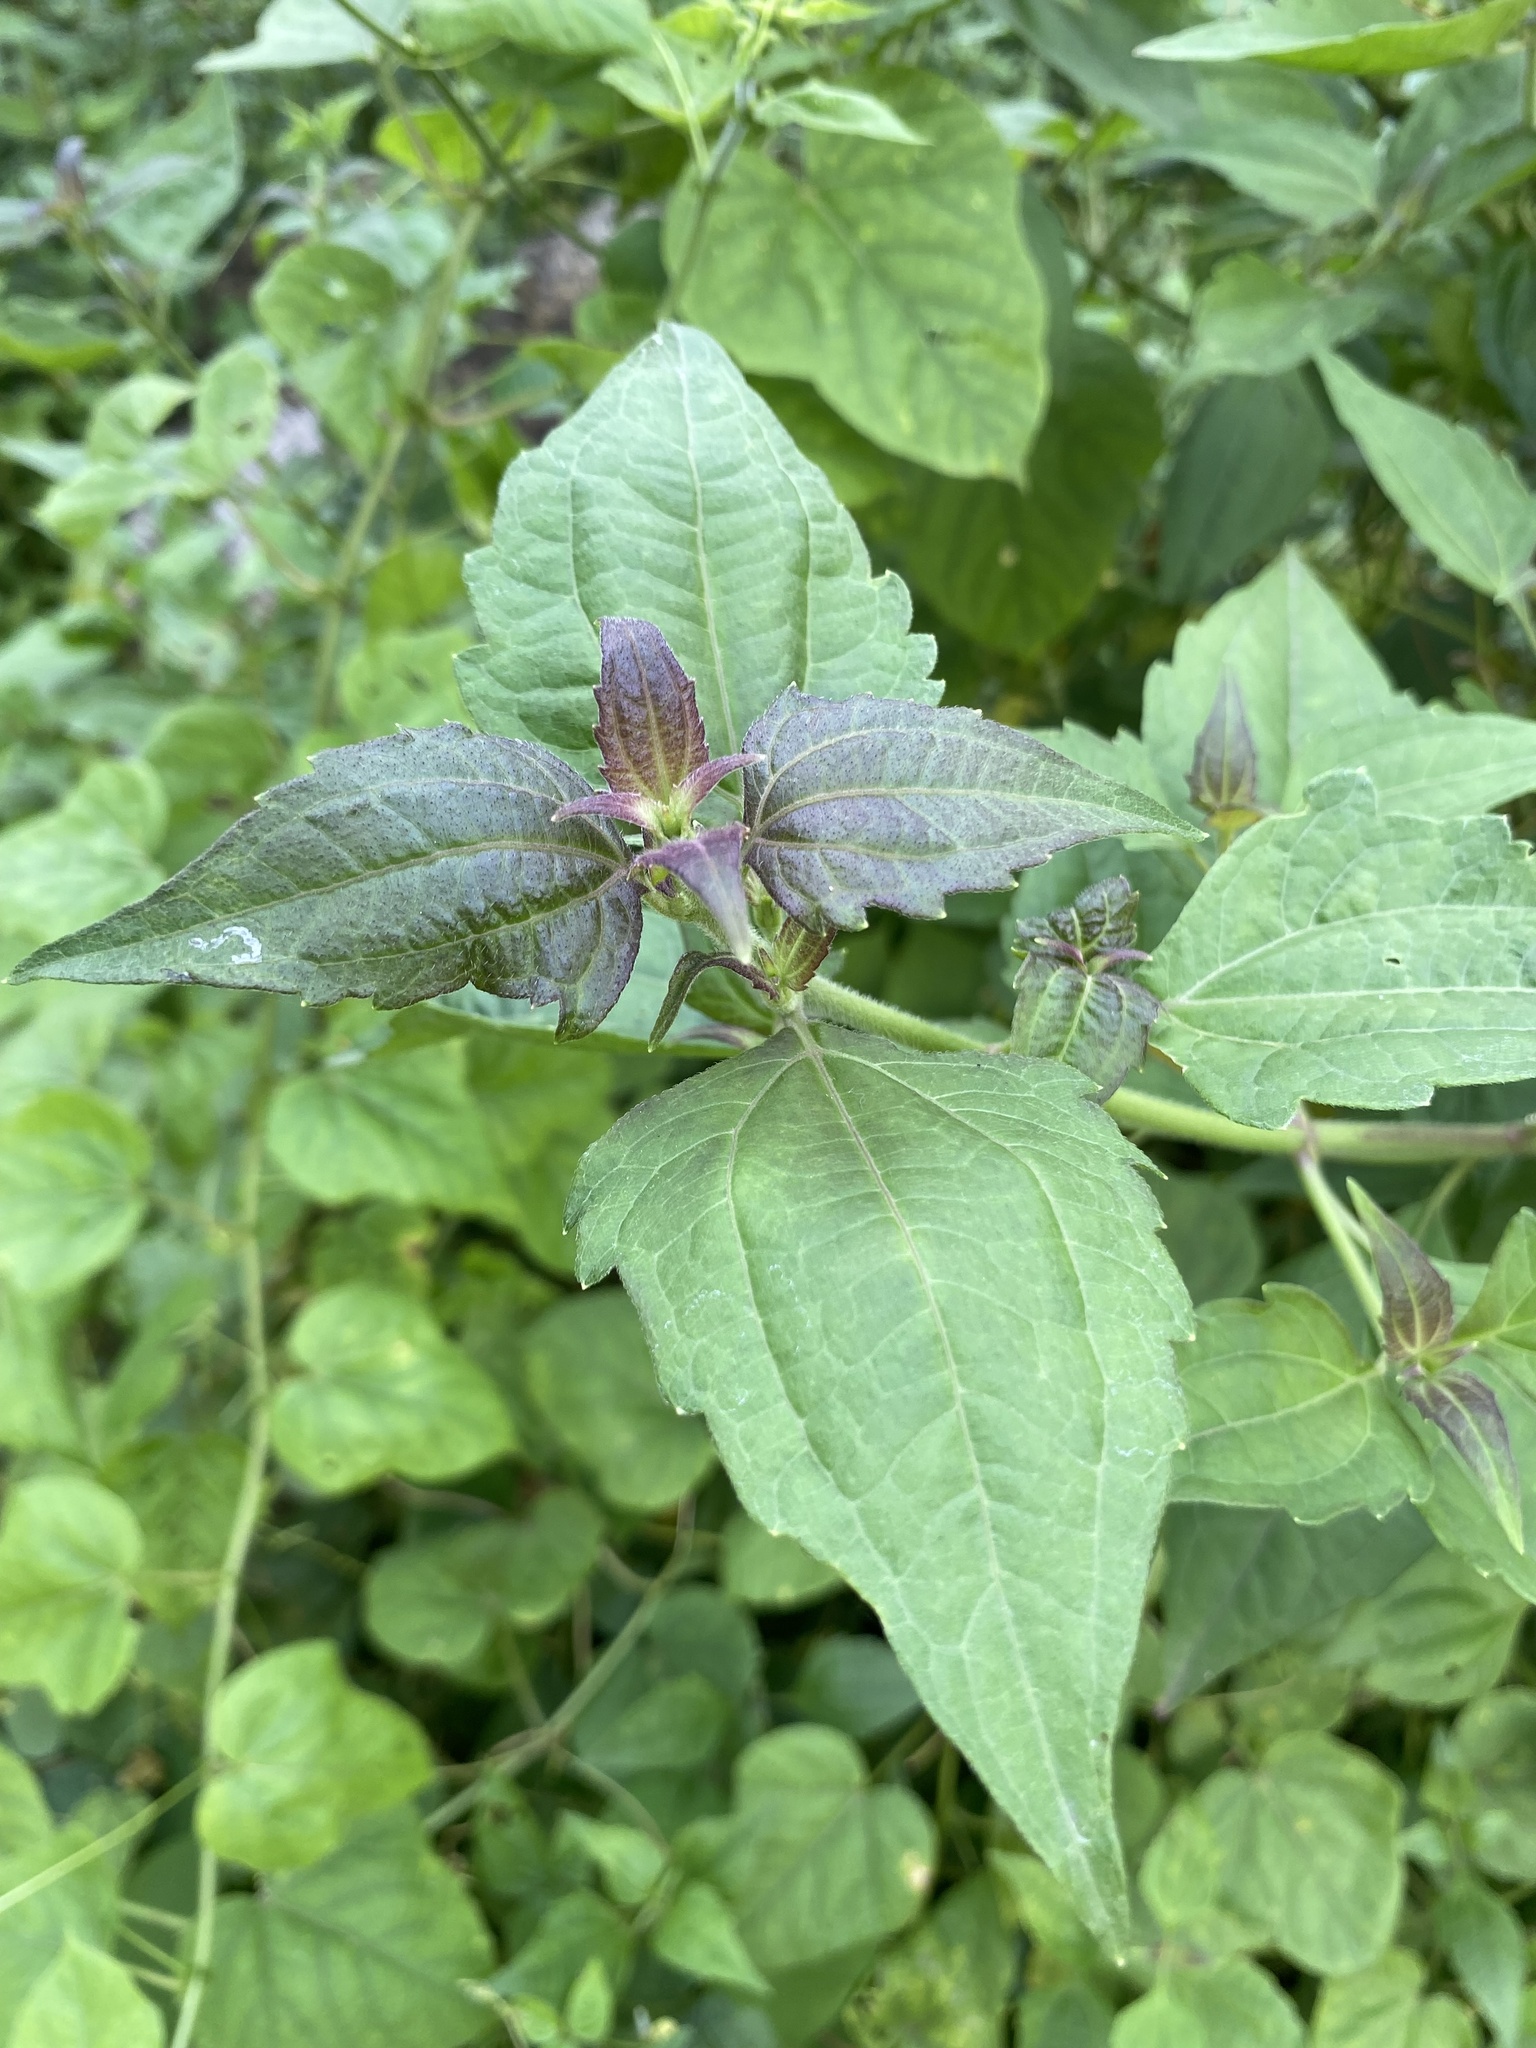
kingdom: Plantae
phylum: Tracheophyta
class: Magnoliopsida
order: Asterales
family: Asteraceae
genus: Chromolaena
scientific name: Chromolaena odorata
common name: Siamweed
